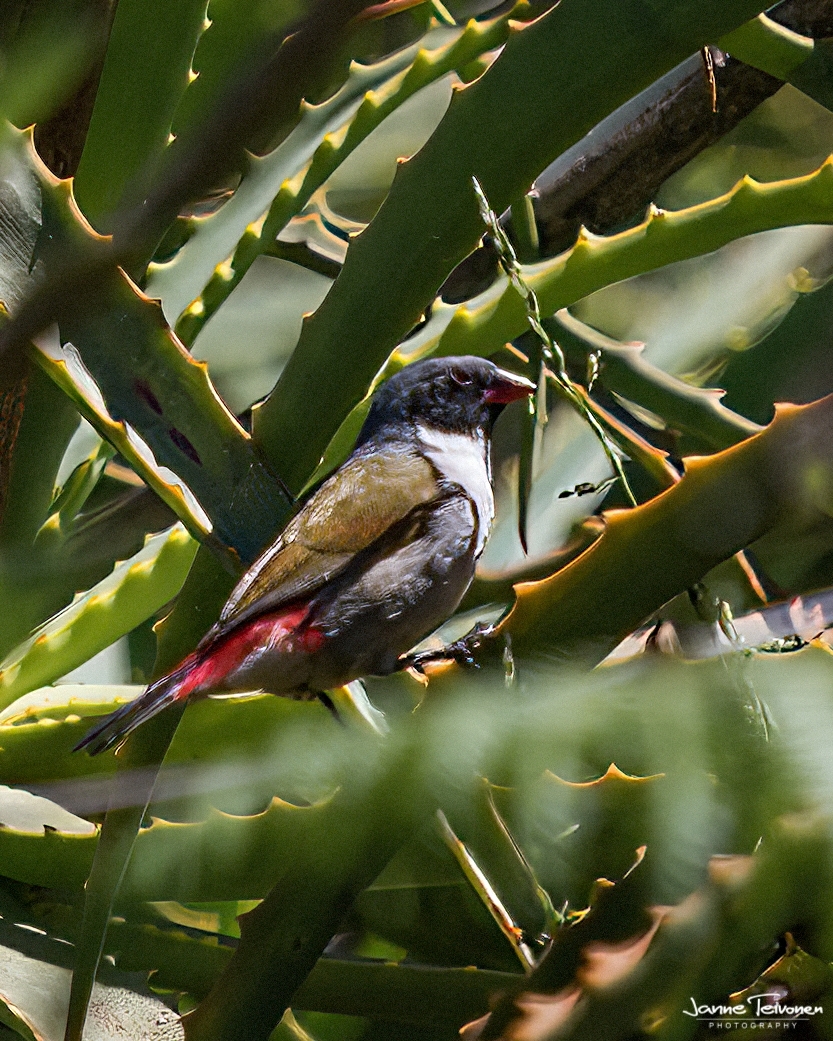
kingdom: Animalia
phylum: Chordata
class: Aves
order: Passeriformes
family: Estrildidae
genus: Coccopygia
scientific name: Coccopygia melanotis
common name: Swee waxbill
